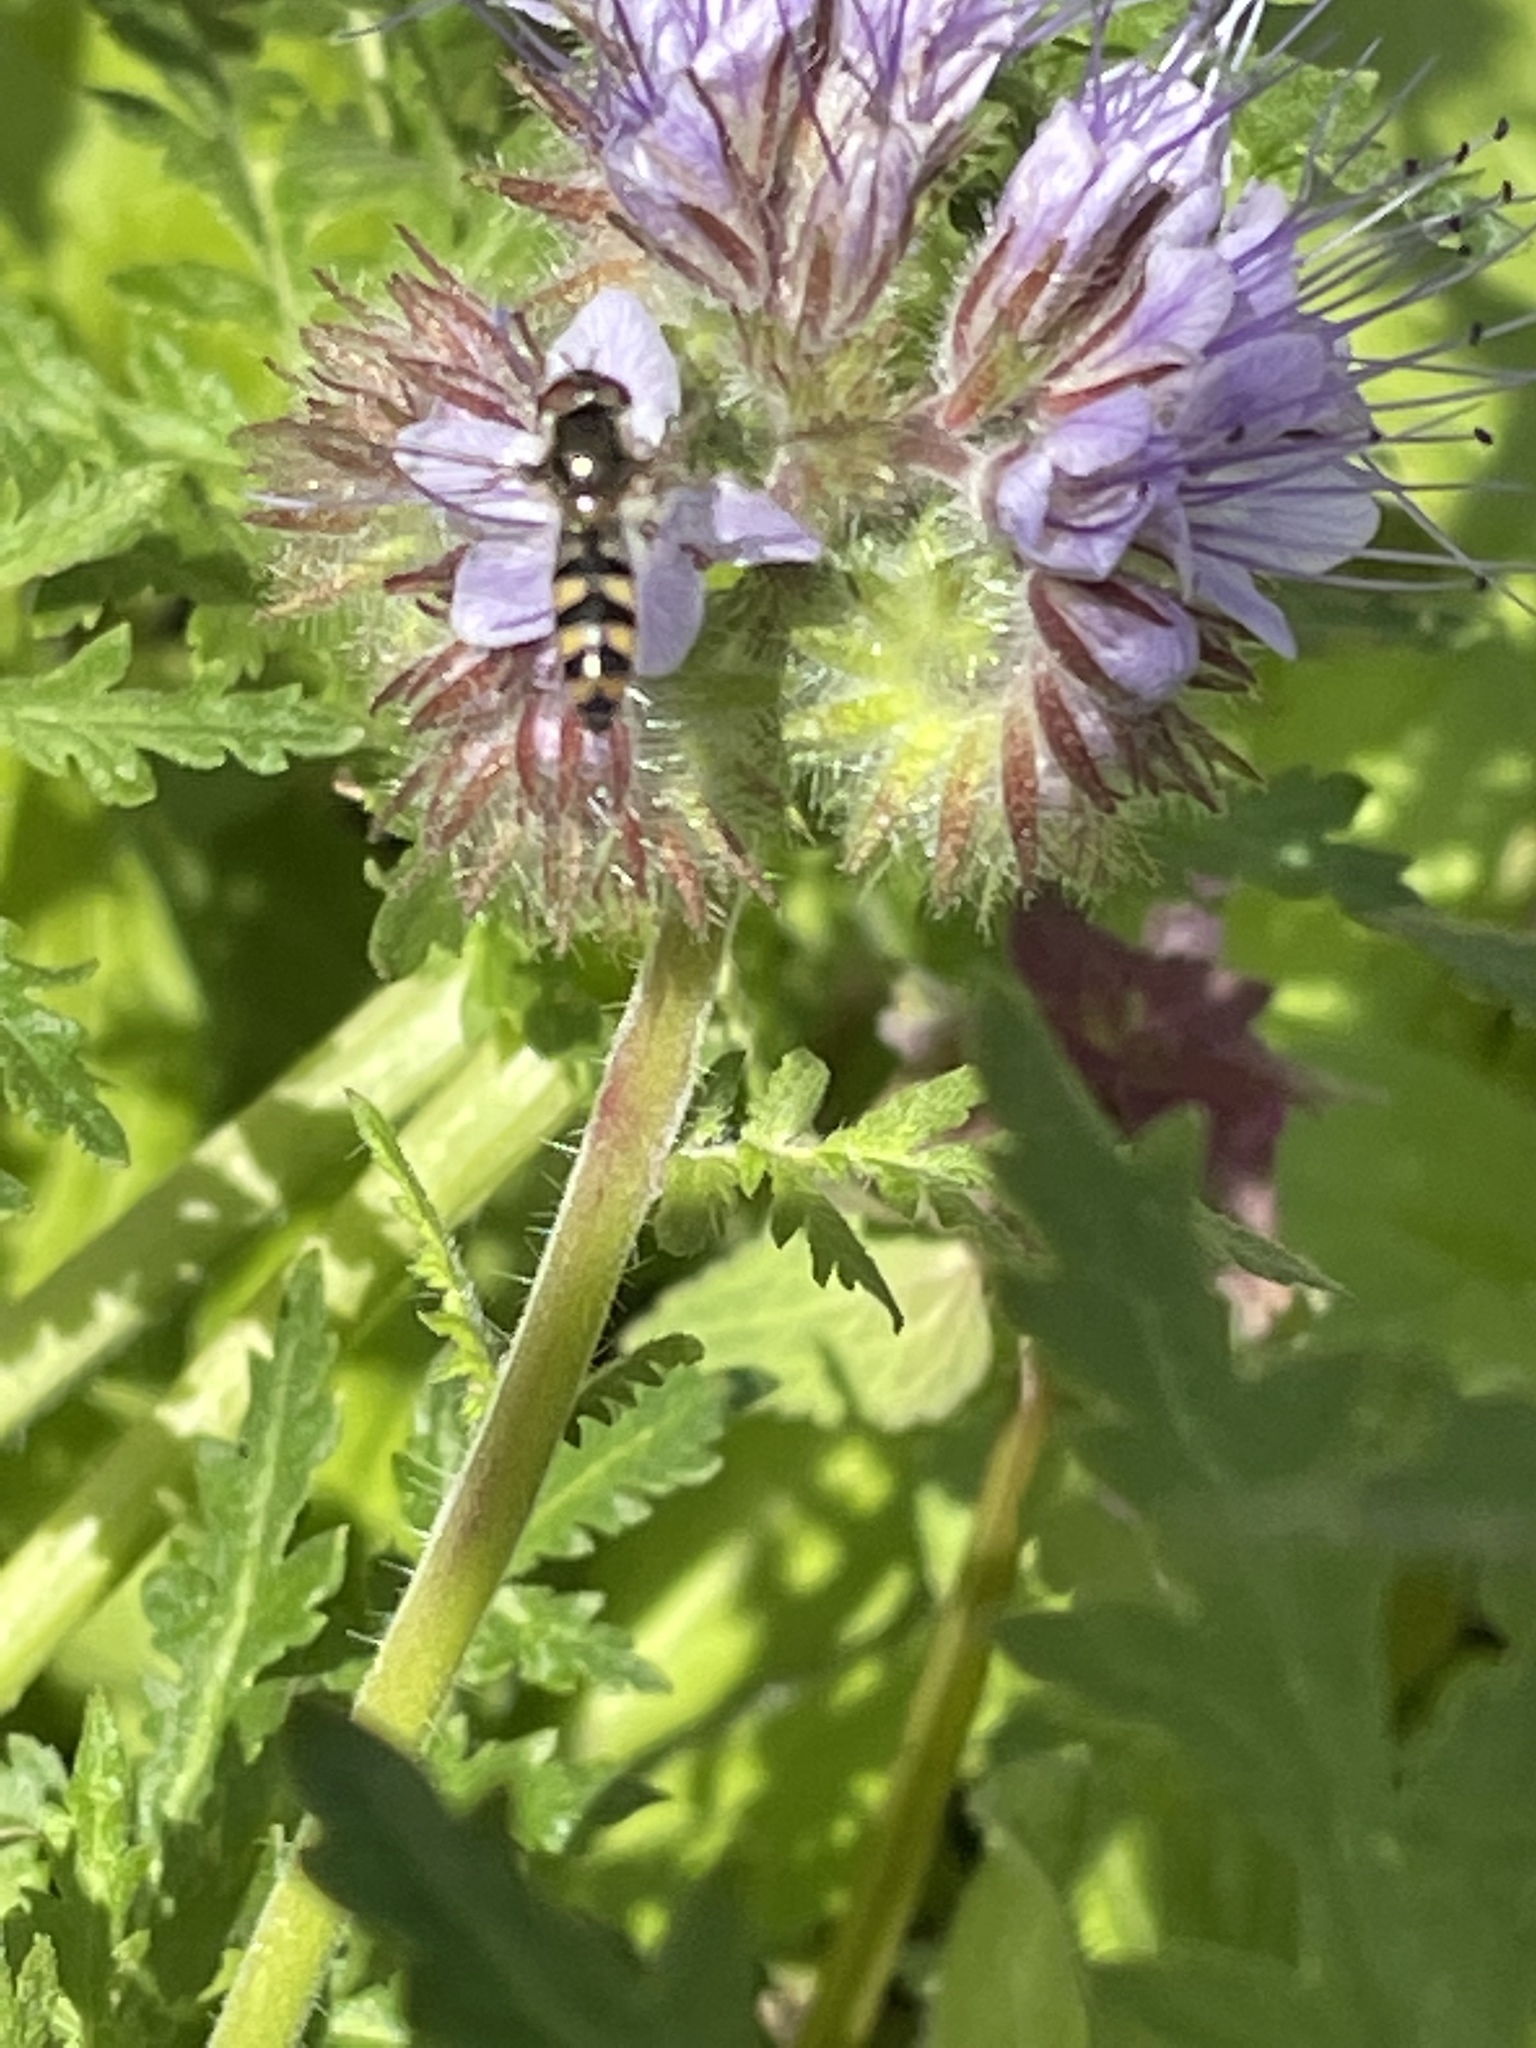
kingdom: Animalia
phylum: Arthropoda
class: Insecta
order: Diptera
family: Syrphidae
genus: Meliscaeva
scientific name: Meliscaeva auricollis
